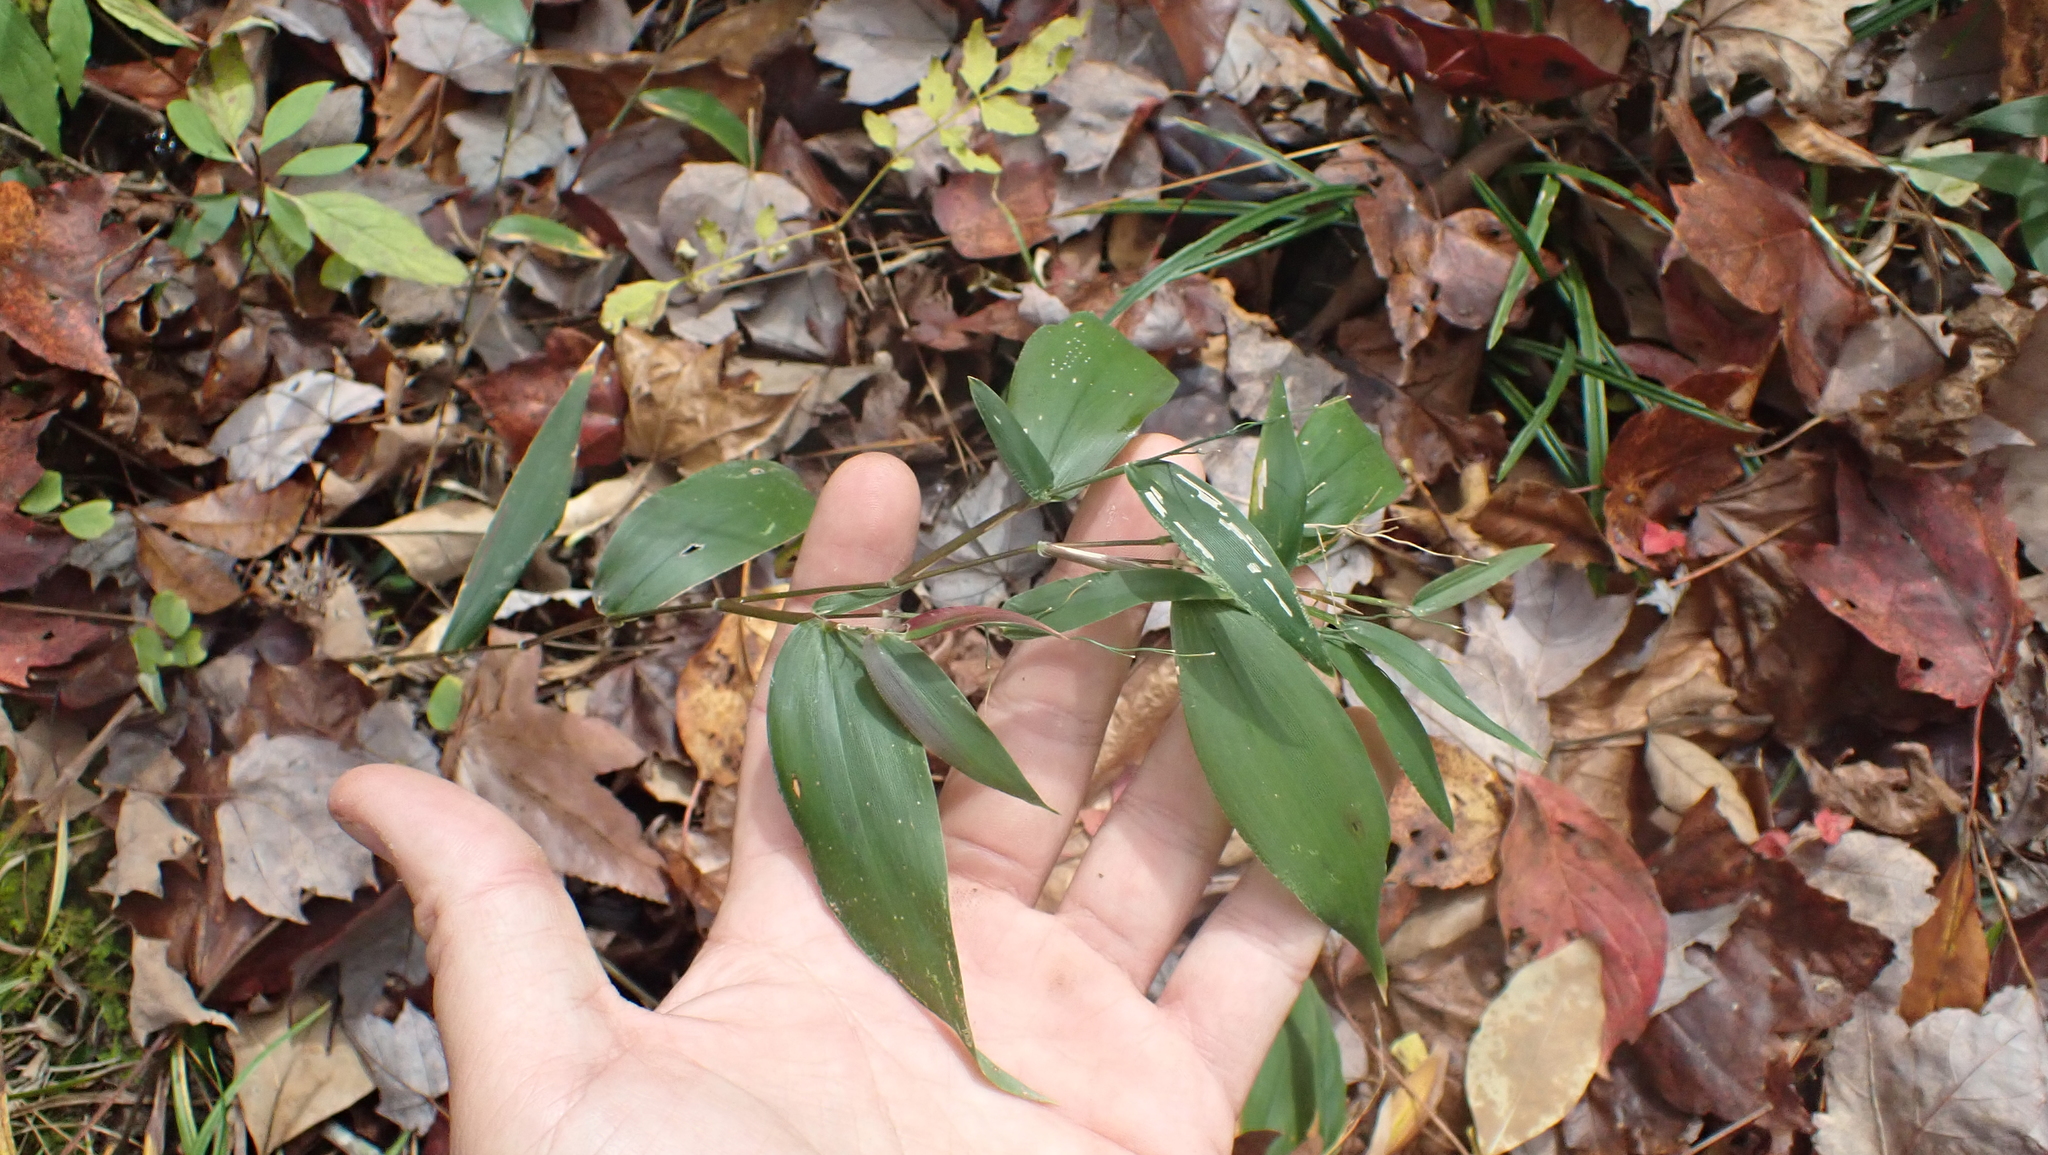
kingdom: Plantae
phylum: Tracheophyta
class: Liliopsida
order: Poales
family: Poaceae
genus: Dichanthelium
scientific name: Dichanthelium boscii
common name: Bosc's panic grass
